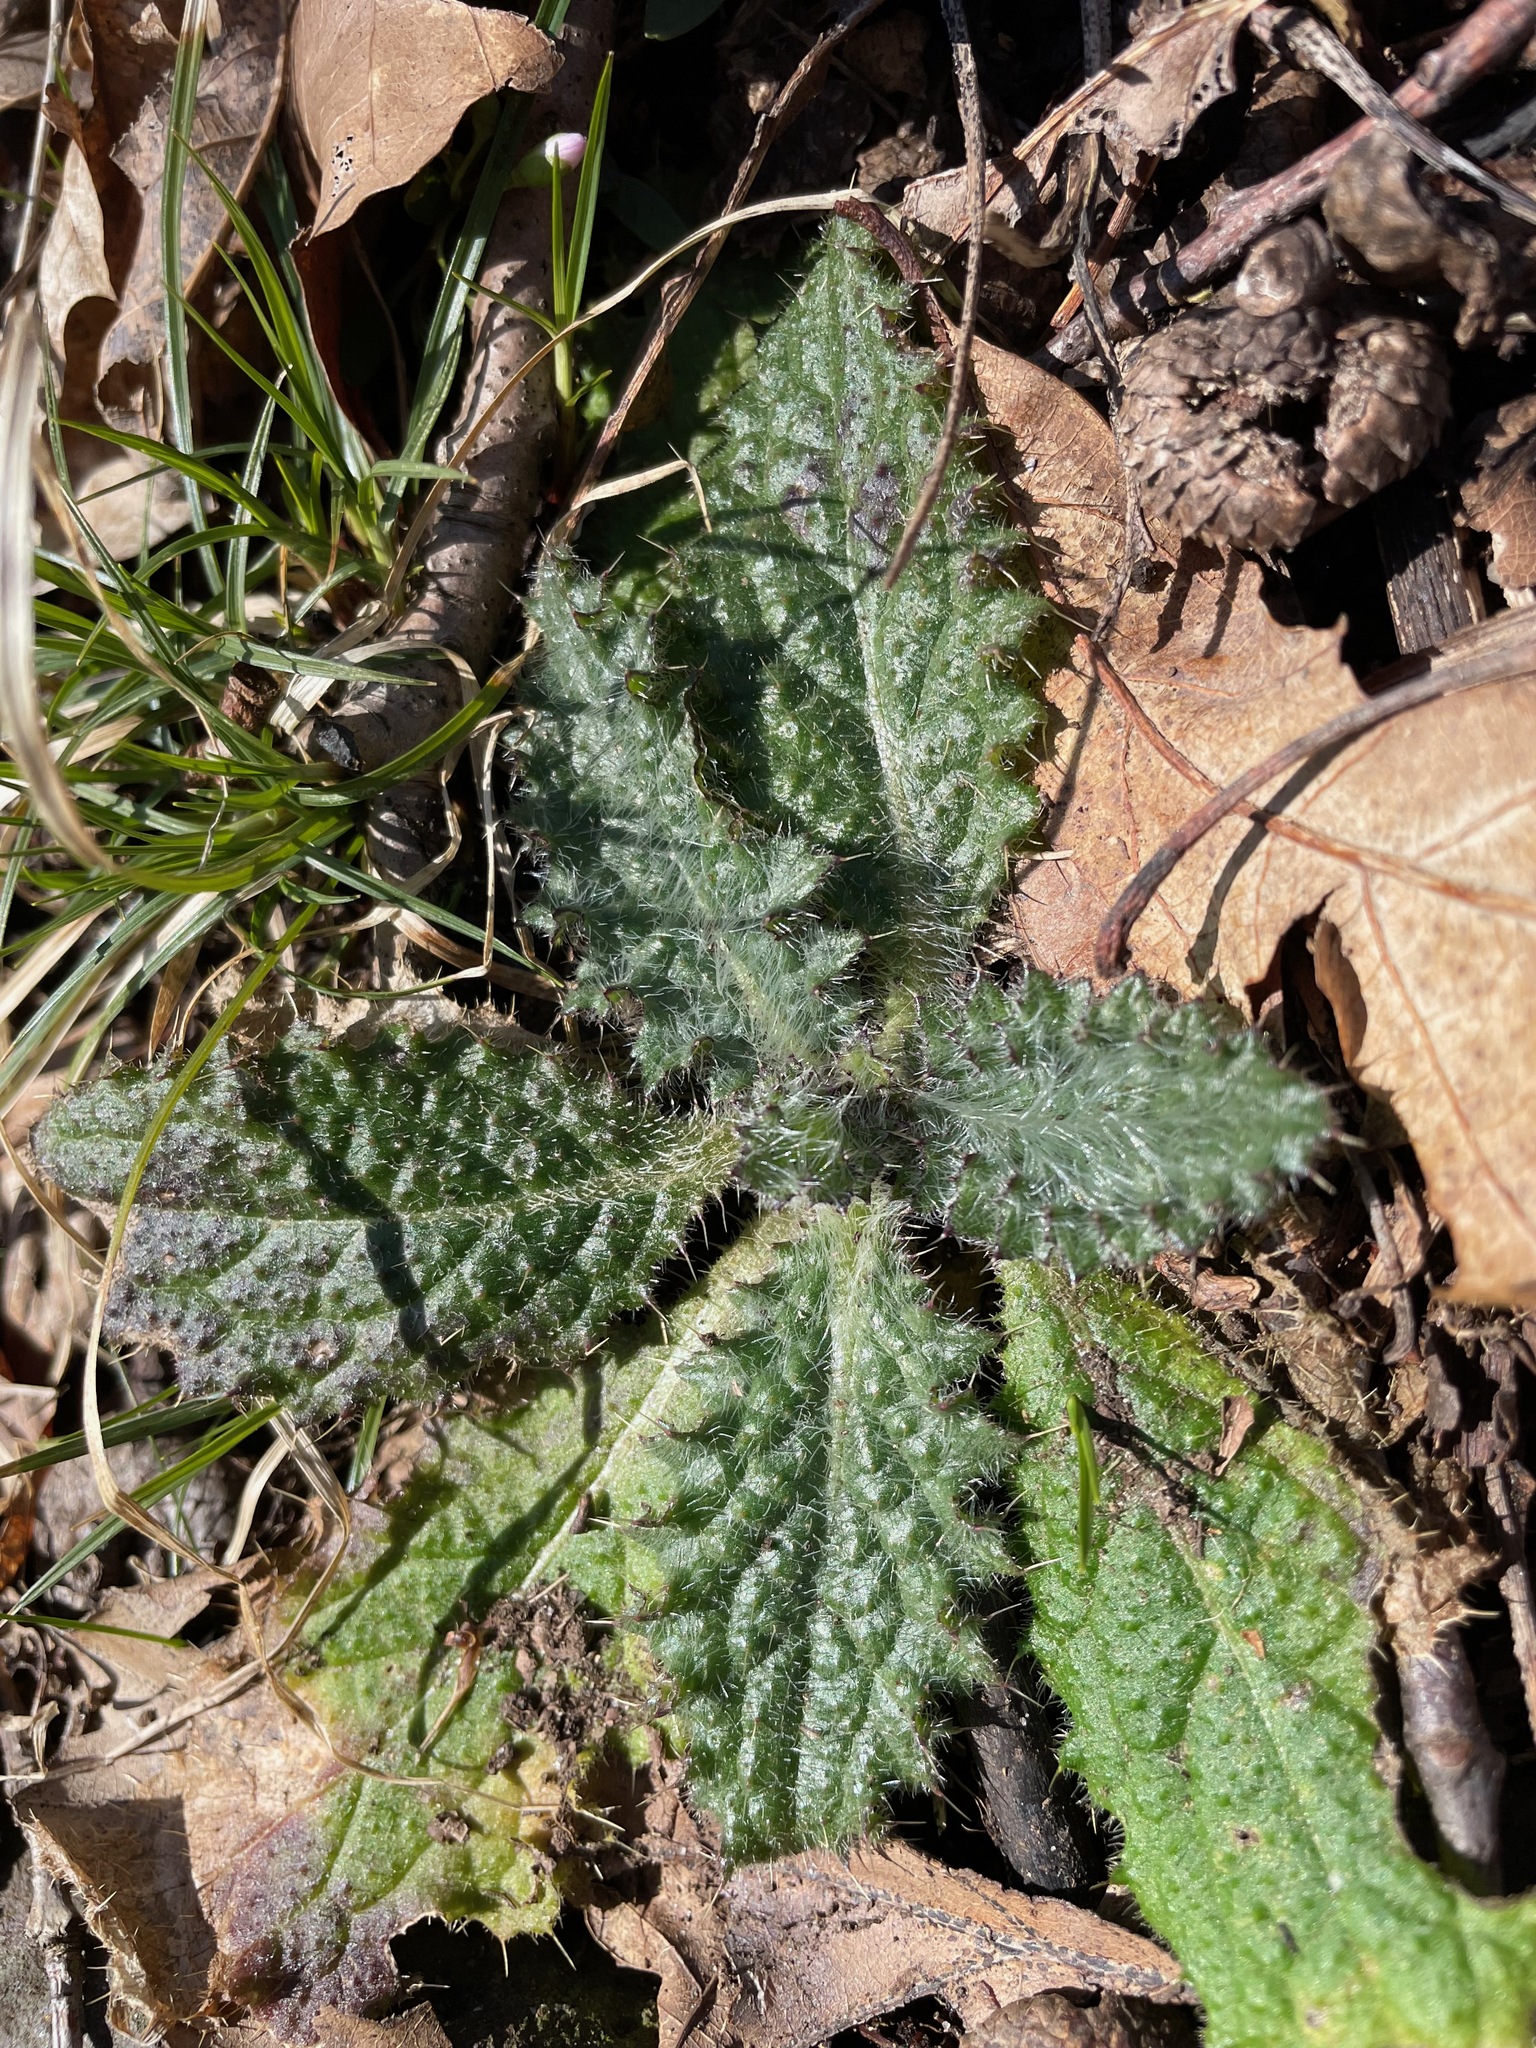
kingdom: Plantae
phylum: Tracheophyta
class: Magnoliopsida
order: Asterales
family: Asteraceae
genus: Cirsium
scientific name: Cirsium vulgare
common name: Bull thistle
